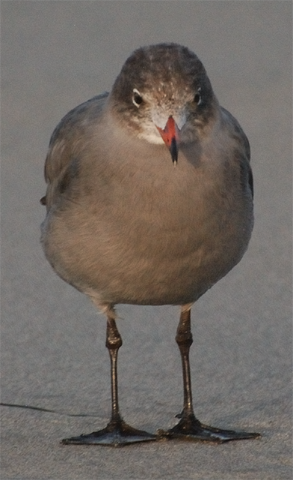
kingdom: Animalia
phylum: Chordata
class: Aves
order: Charadriiformes
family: Laridae
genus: Larus
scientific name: Larus heermanni
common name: Heermann's gull
